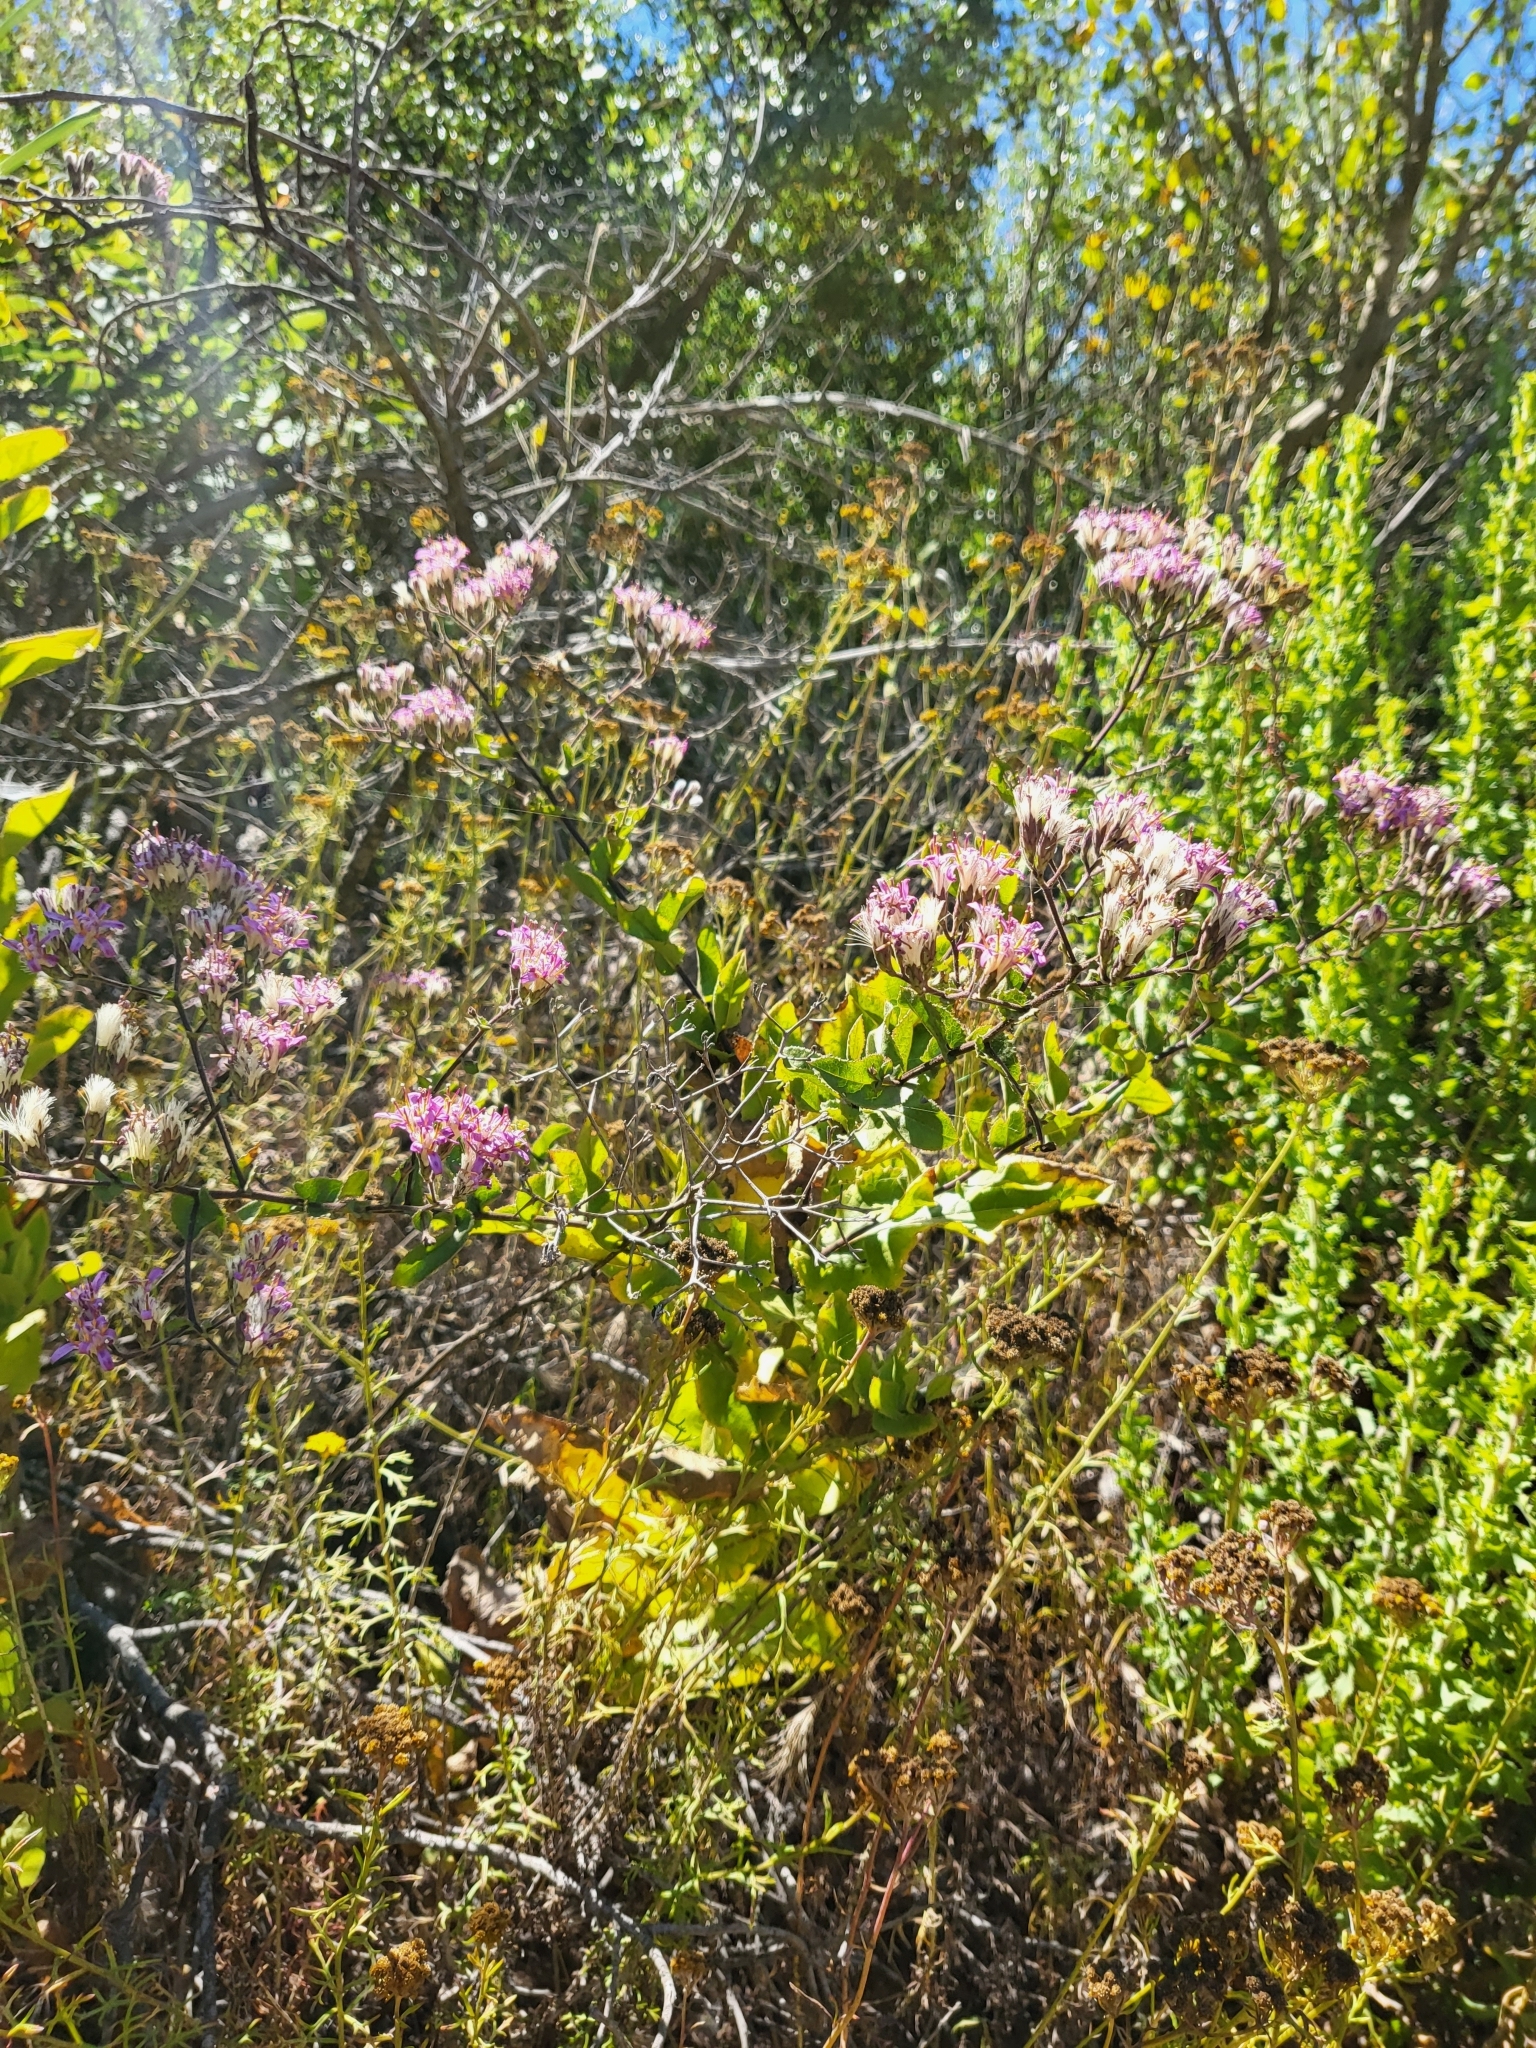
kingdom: Plantae
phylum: Tracheophyta
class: Magnoliopsida
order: Asterales
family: Asteraceae
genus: Acourtia
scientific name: Acourtia microcephala
